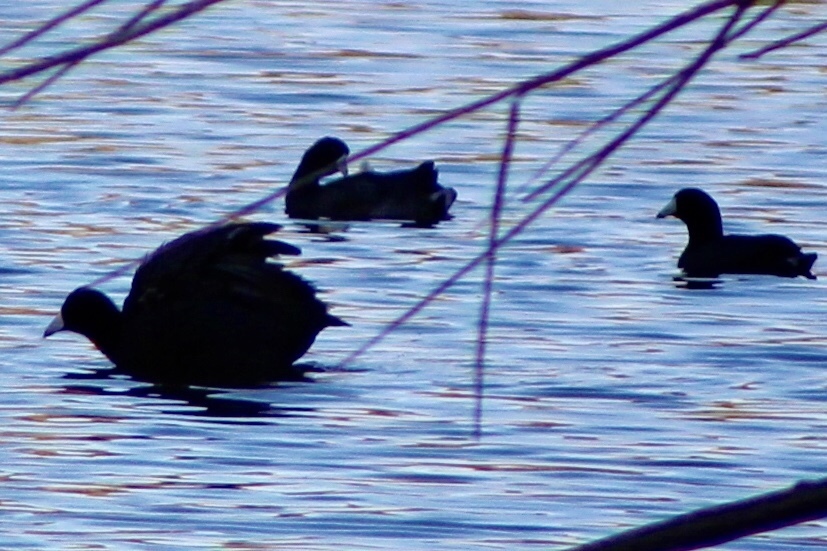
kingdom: Animalia
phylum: Chordata
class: Aves
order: Gruiformes
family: Rallidae
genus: Fulica
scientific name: Fulica americana
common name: American coot
